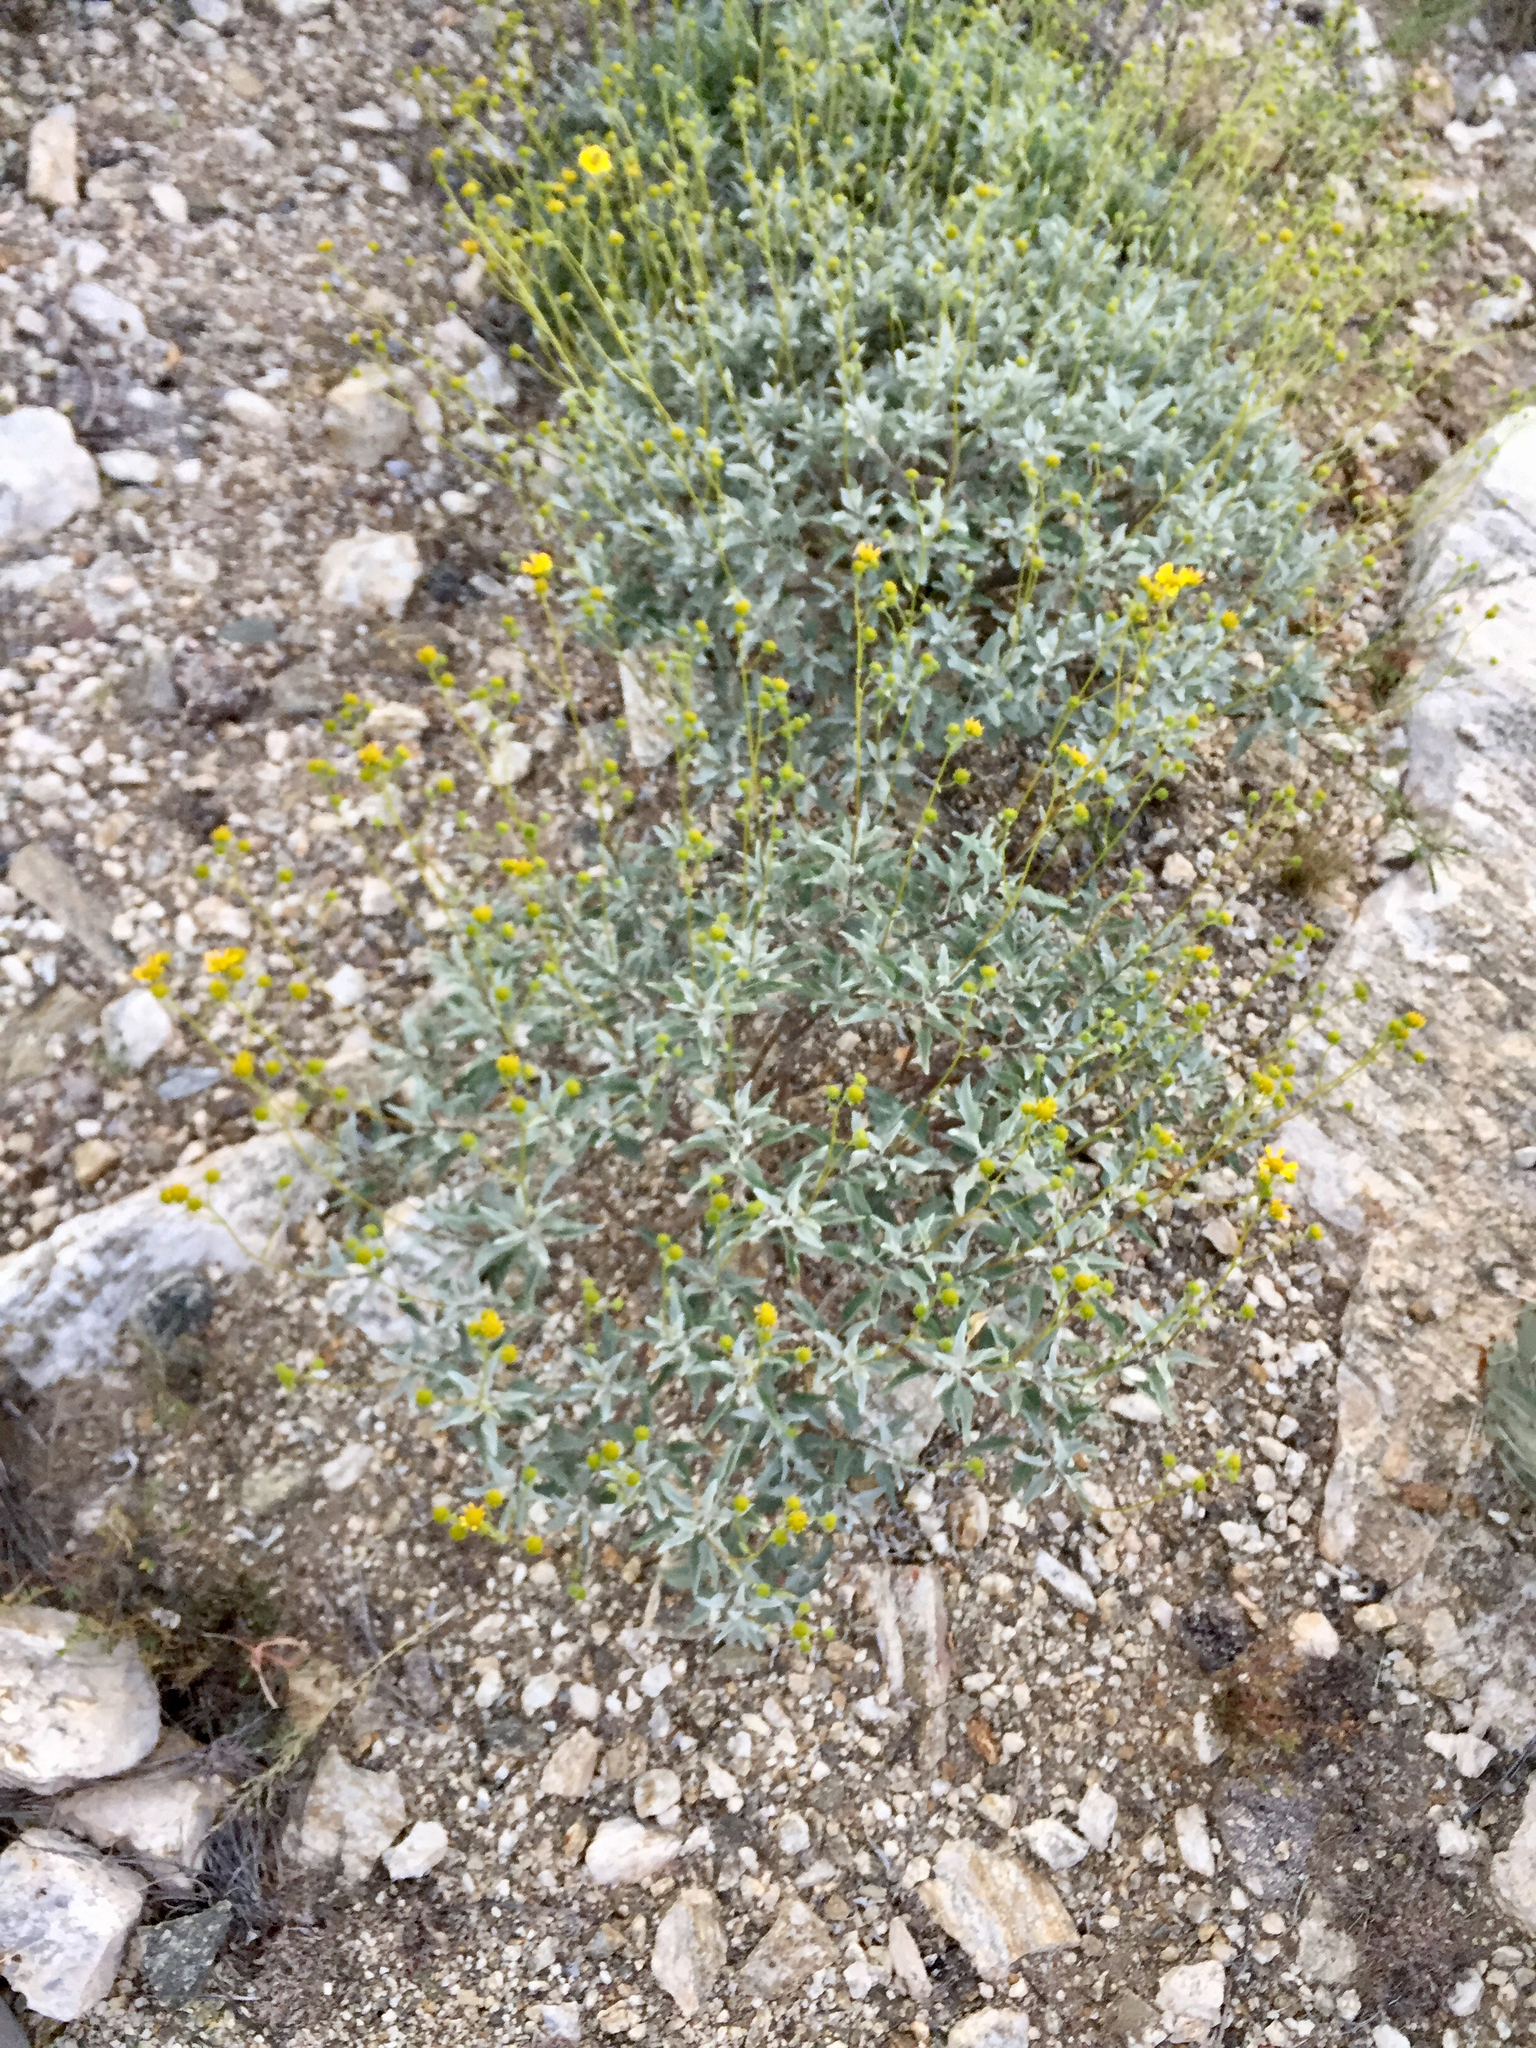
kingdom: Plantae
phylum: Tracheophyta
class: Magnoliopsida
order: Asterales
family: Asteraceae
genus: Encelia
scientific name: Encelia farinosa
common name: Brittlebush
